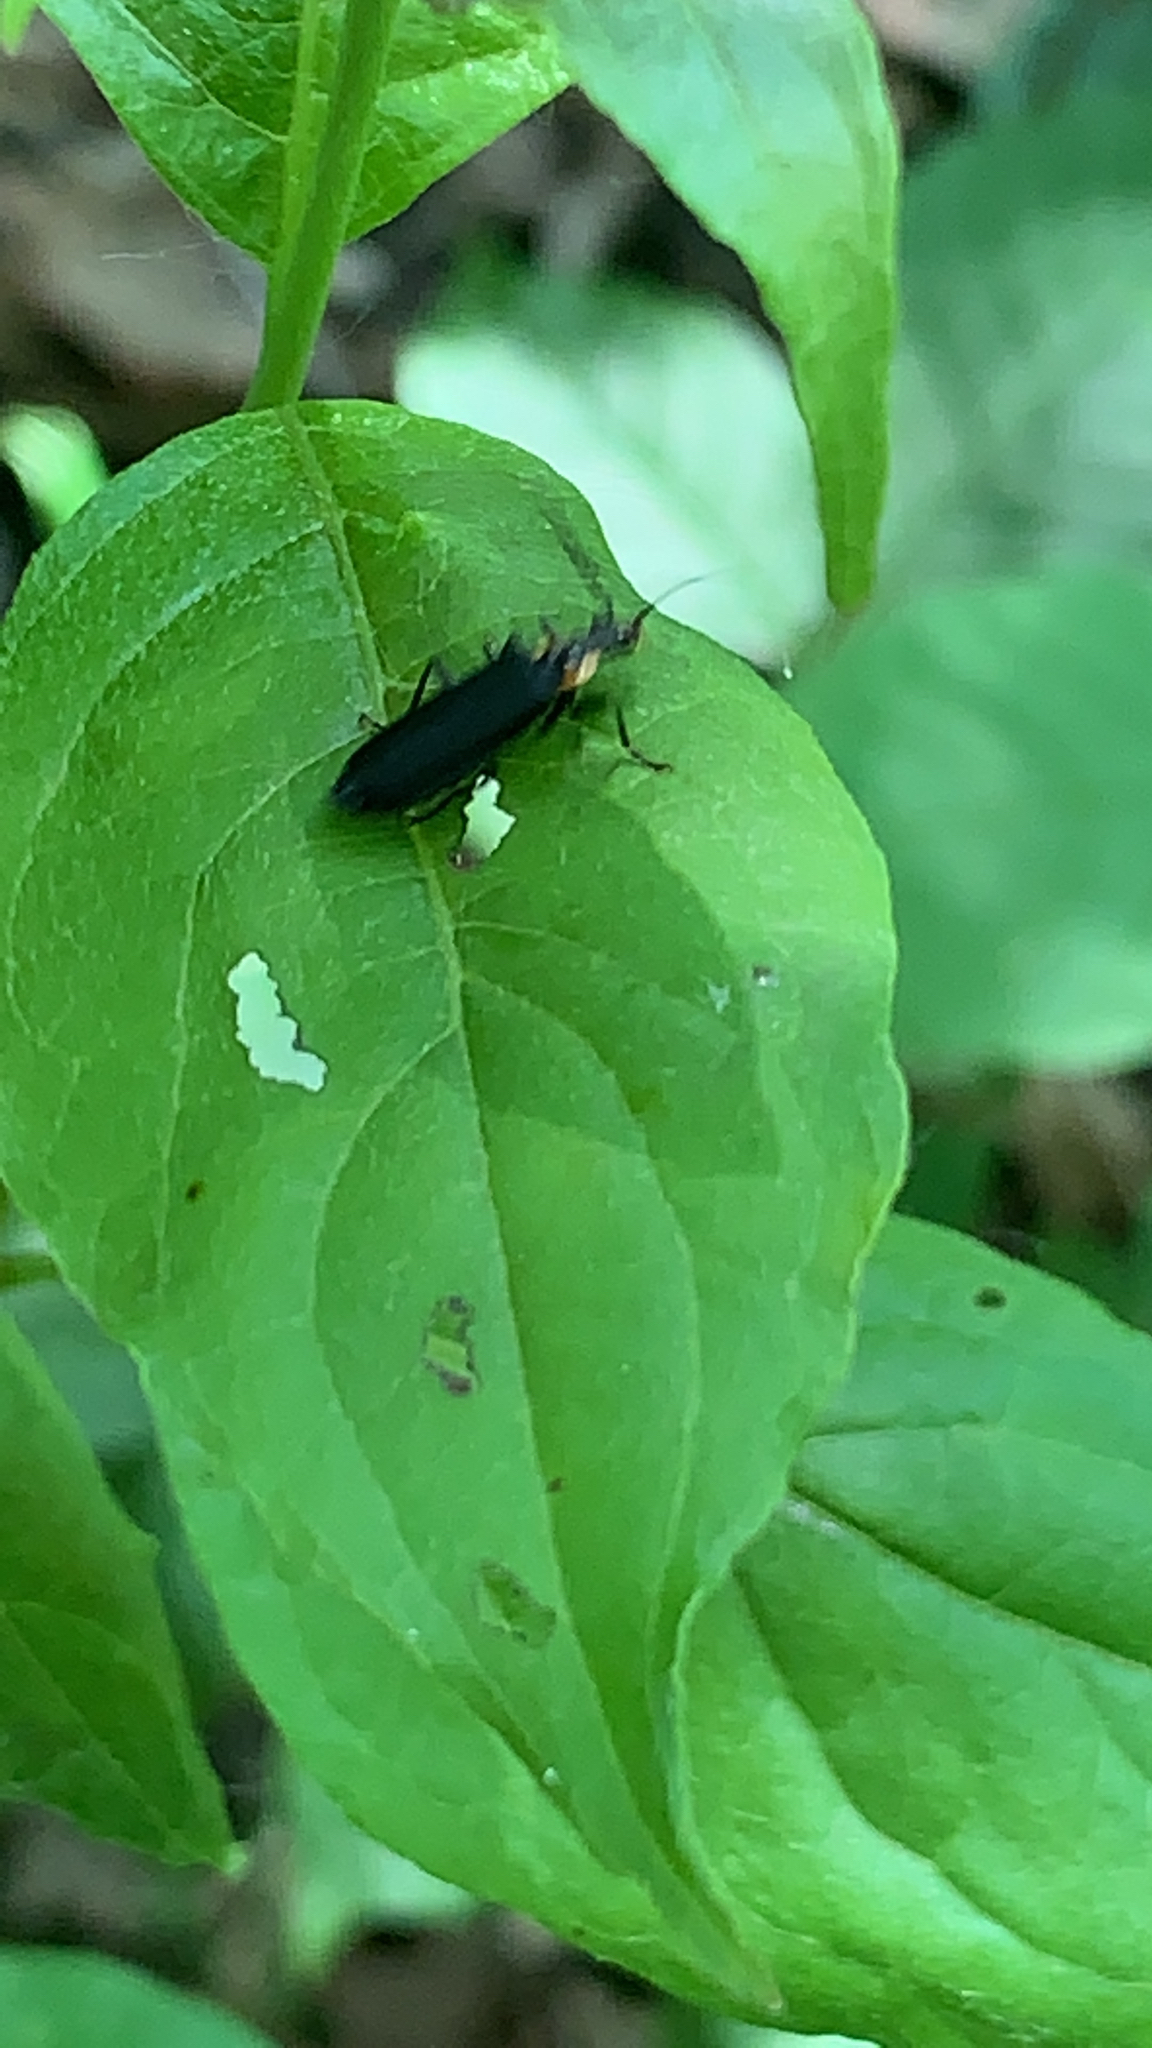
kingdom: Animalia
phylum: Arthropoda
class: Insecta
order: Coleoptera
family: Cantharidae
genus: Podabrus
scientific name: Podabrus rugosulus
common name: Wrinkled soldier beetle
